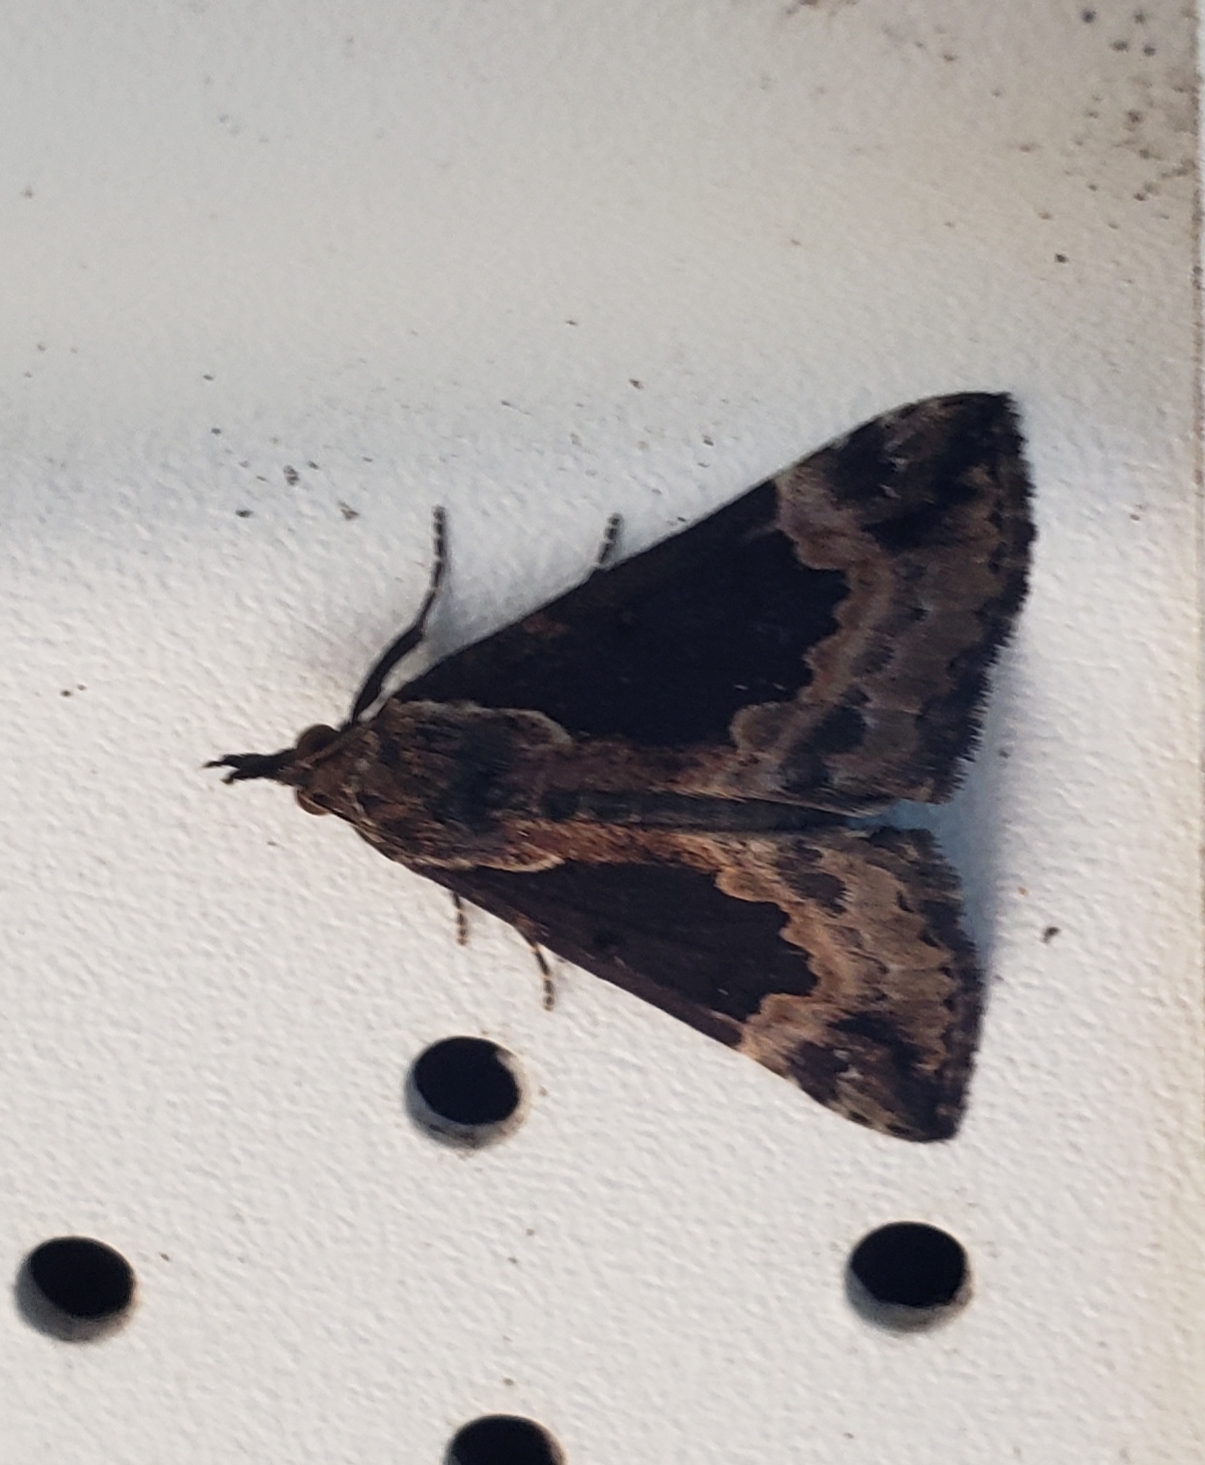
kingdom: Animalia
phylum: Arthropoda
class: Insecta
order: Lepidoptera
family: Erebidae
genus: Hypena
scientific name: Hypena baltimoralis
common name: Baltimore snout
